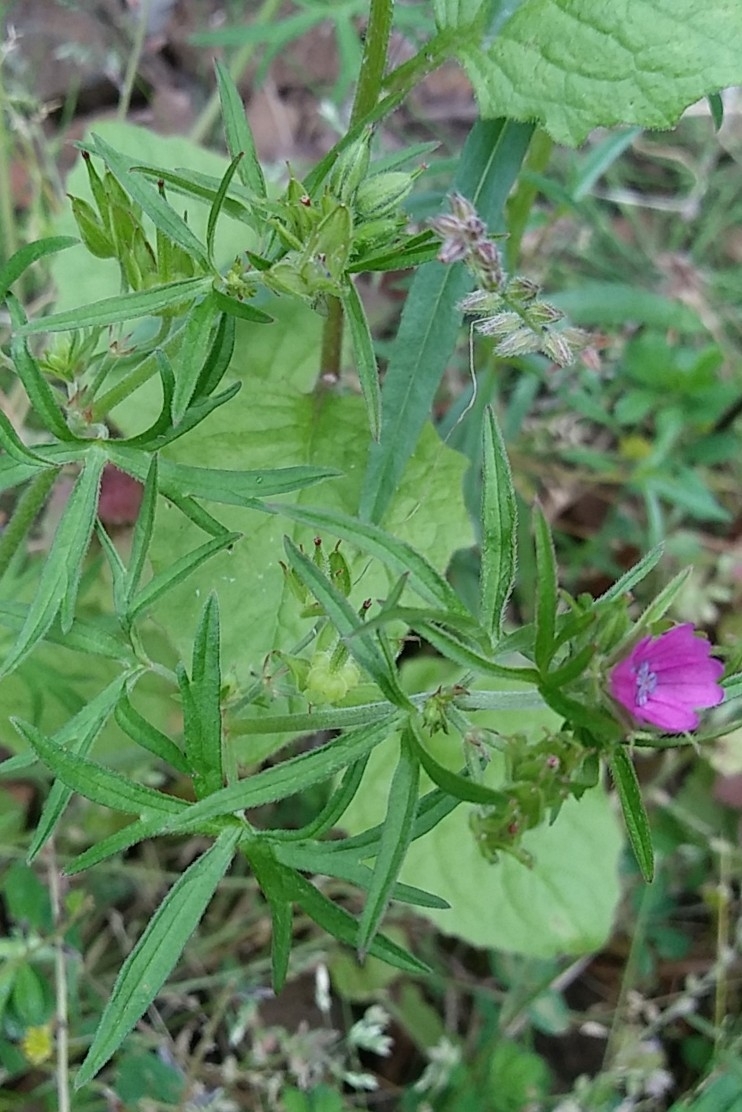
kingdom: Plantae
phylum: Tracheophyta
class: Magnoliopsida
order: Geraniales
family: Geraniaceae
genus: Geranium
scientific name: Geranium dissectum
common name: Cut-leaved crane's-bill
